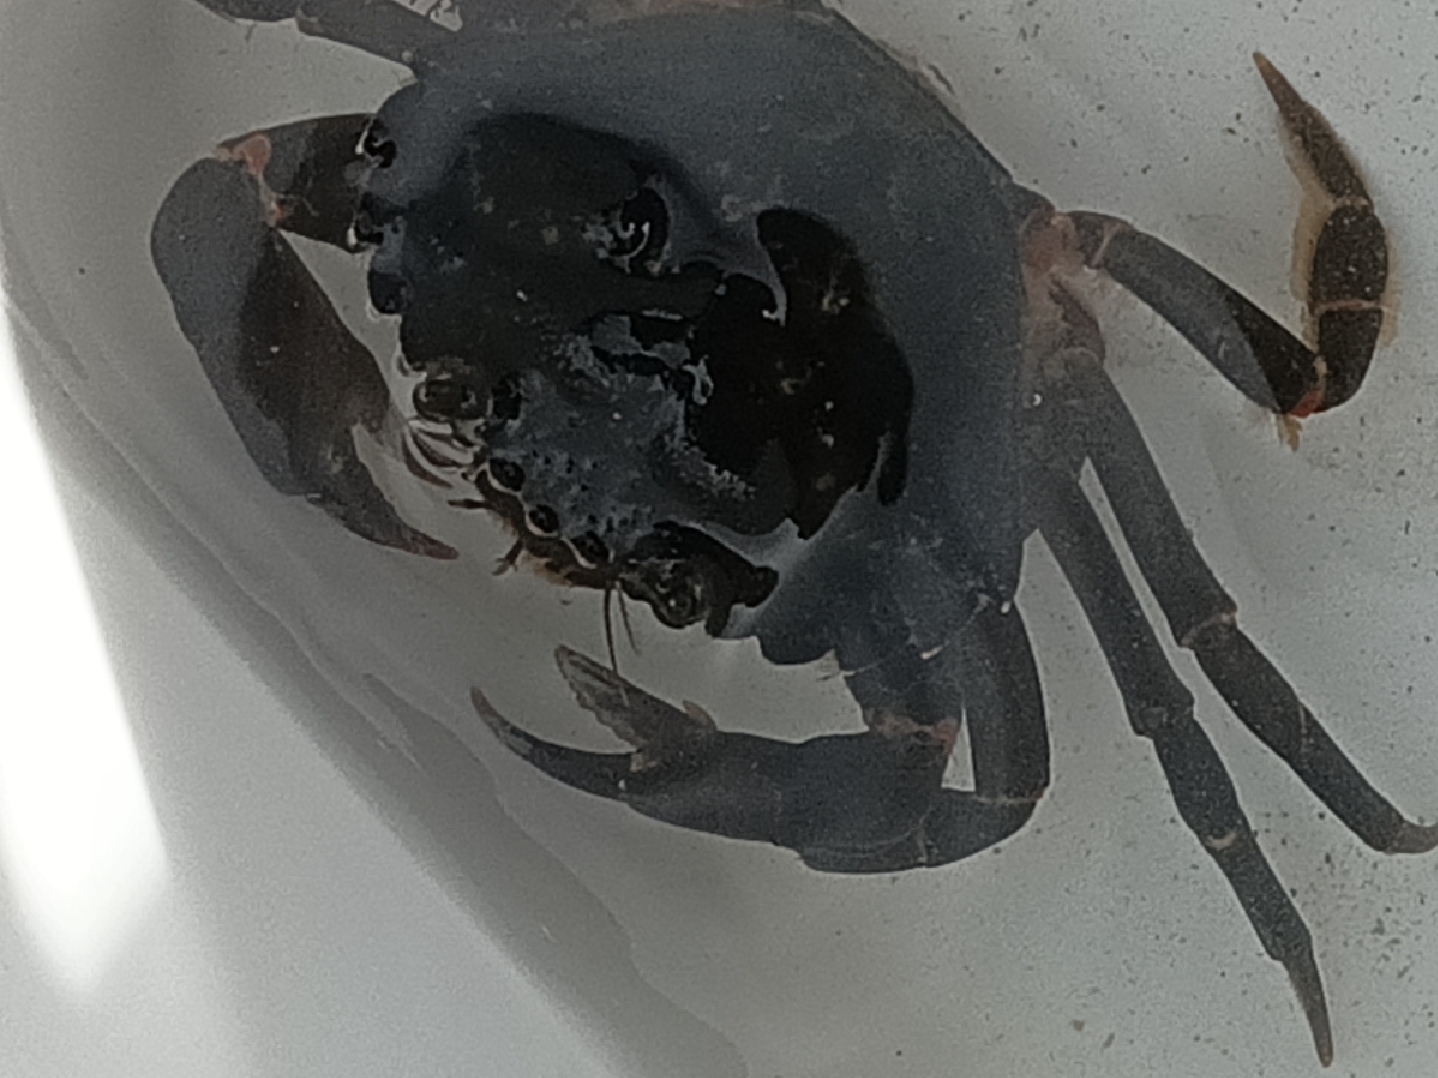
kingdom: Animalia
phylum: Arthropoda
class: Malacostraca
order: Decapoda
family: Carcinidae
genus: Carcinus
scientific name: Carcinus maenas
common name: European green crab
